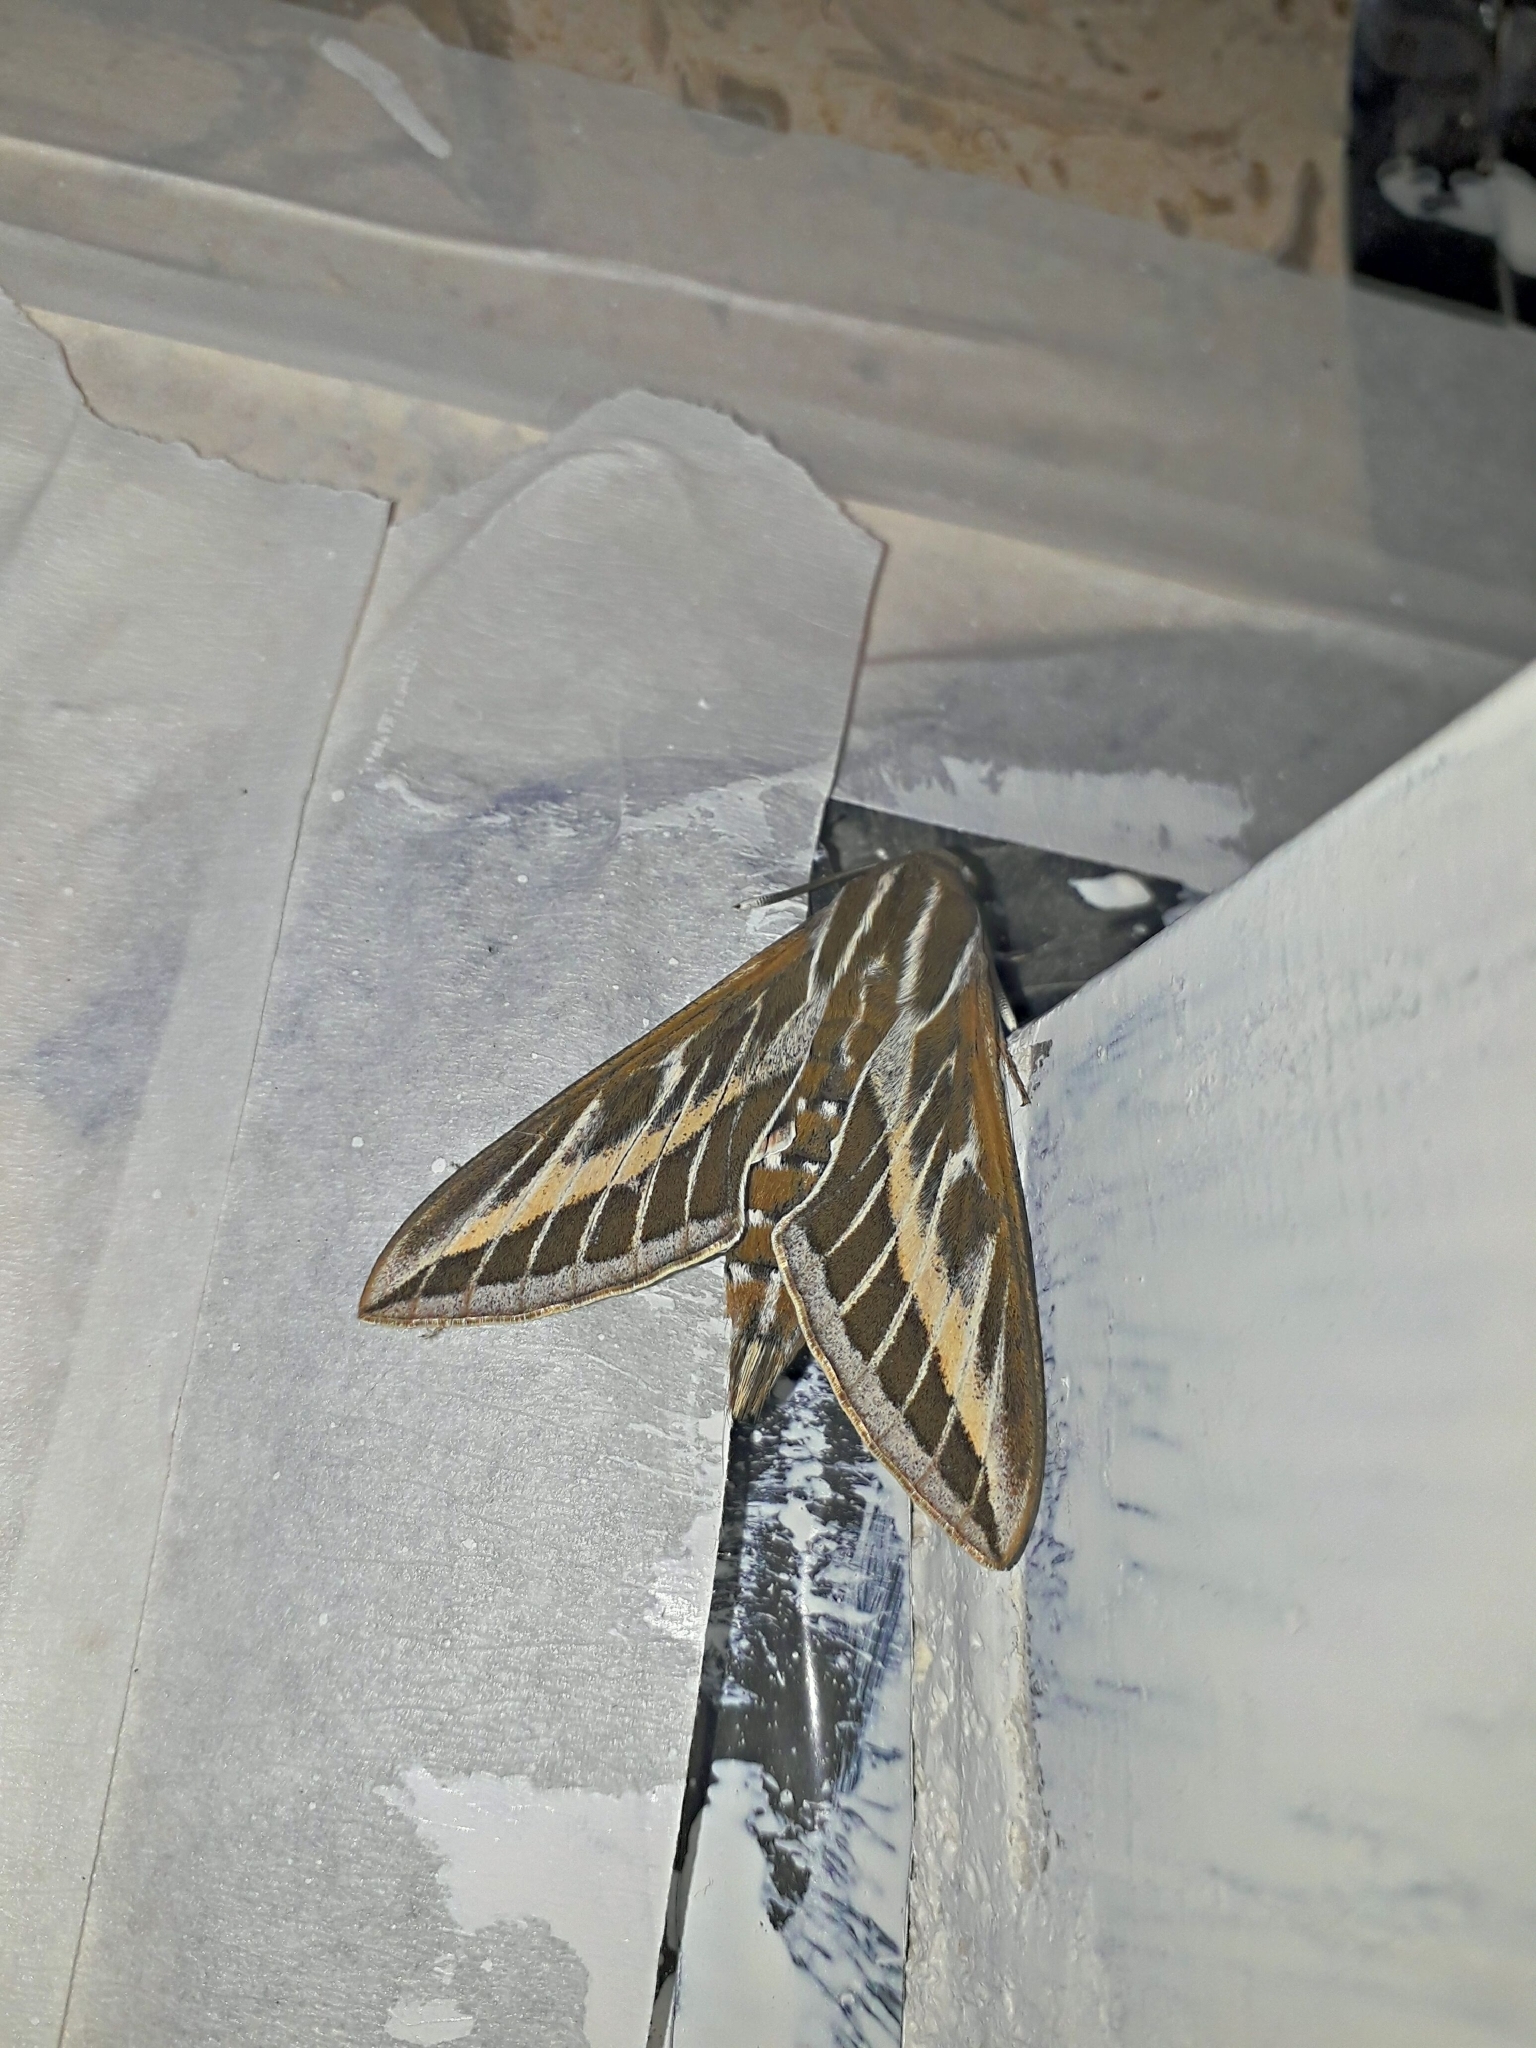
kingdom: Animalia
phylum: Arthropoda
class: Insecta
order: Lepidoptera
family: Sphingidae
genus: Hyles
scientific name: Hyles livornica
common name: Striped hawk-moth
